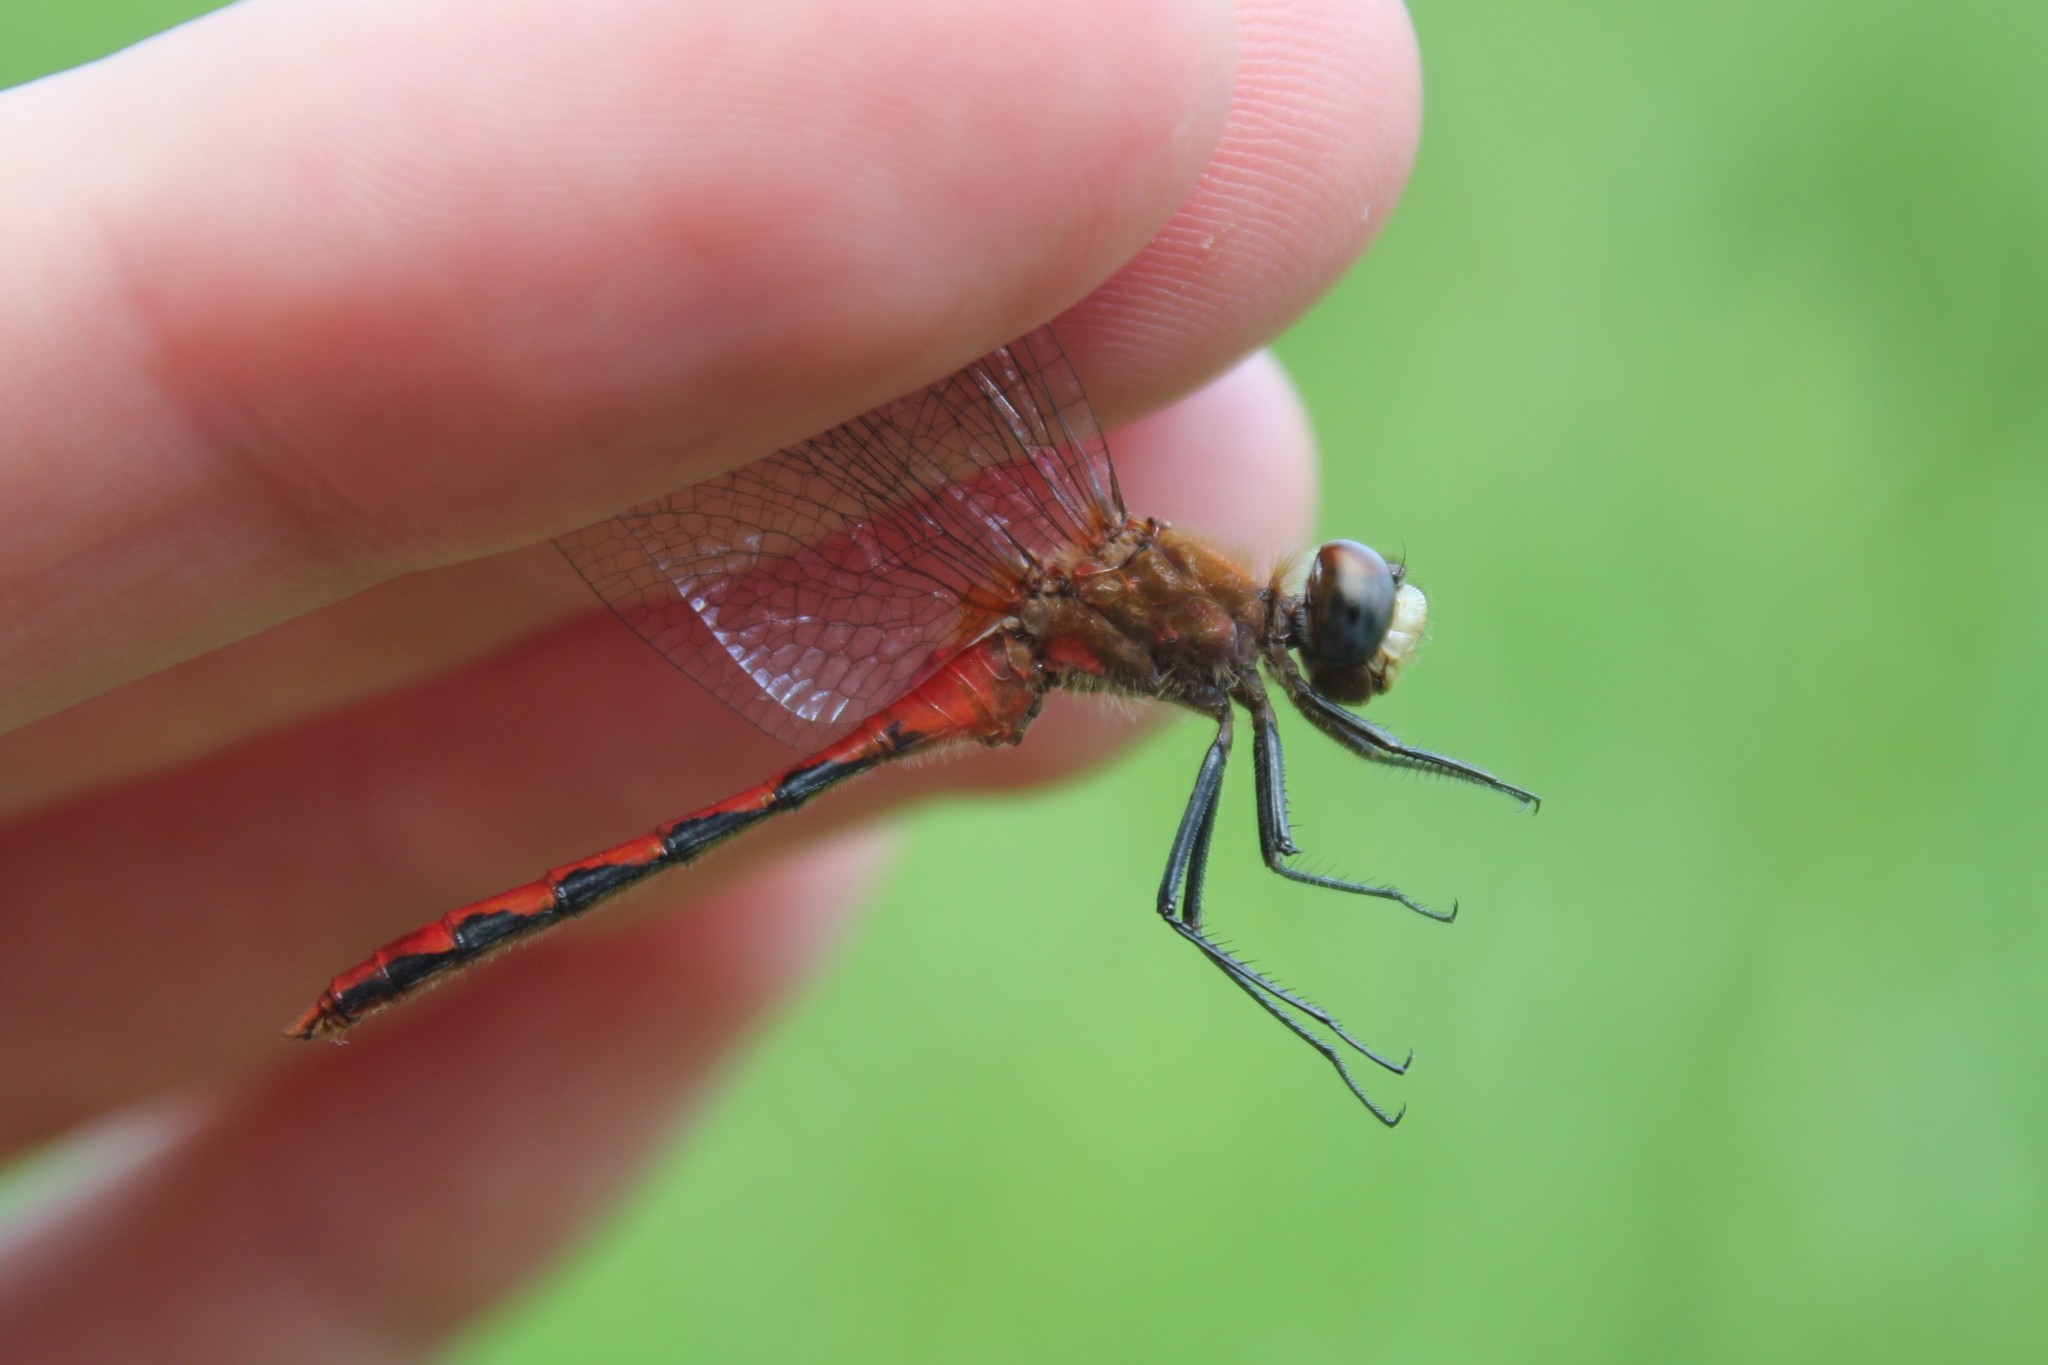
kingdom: Animalia
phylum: Arthropoda
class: Insecta
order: Odonata
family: Libellulidae
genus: Sympetrum
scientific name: Sympetrum obtrusum
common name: White-faced meadowhawk
